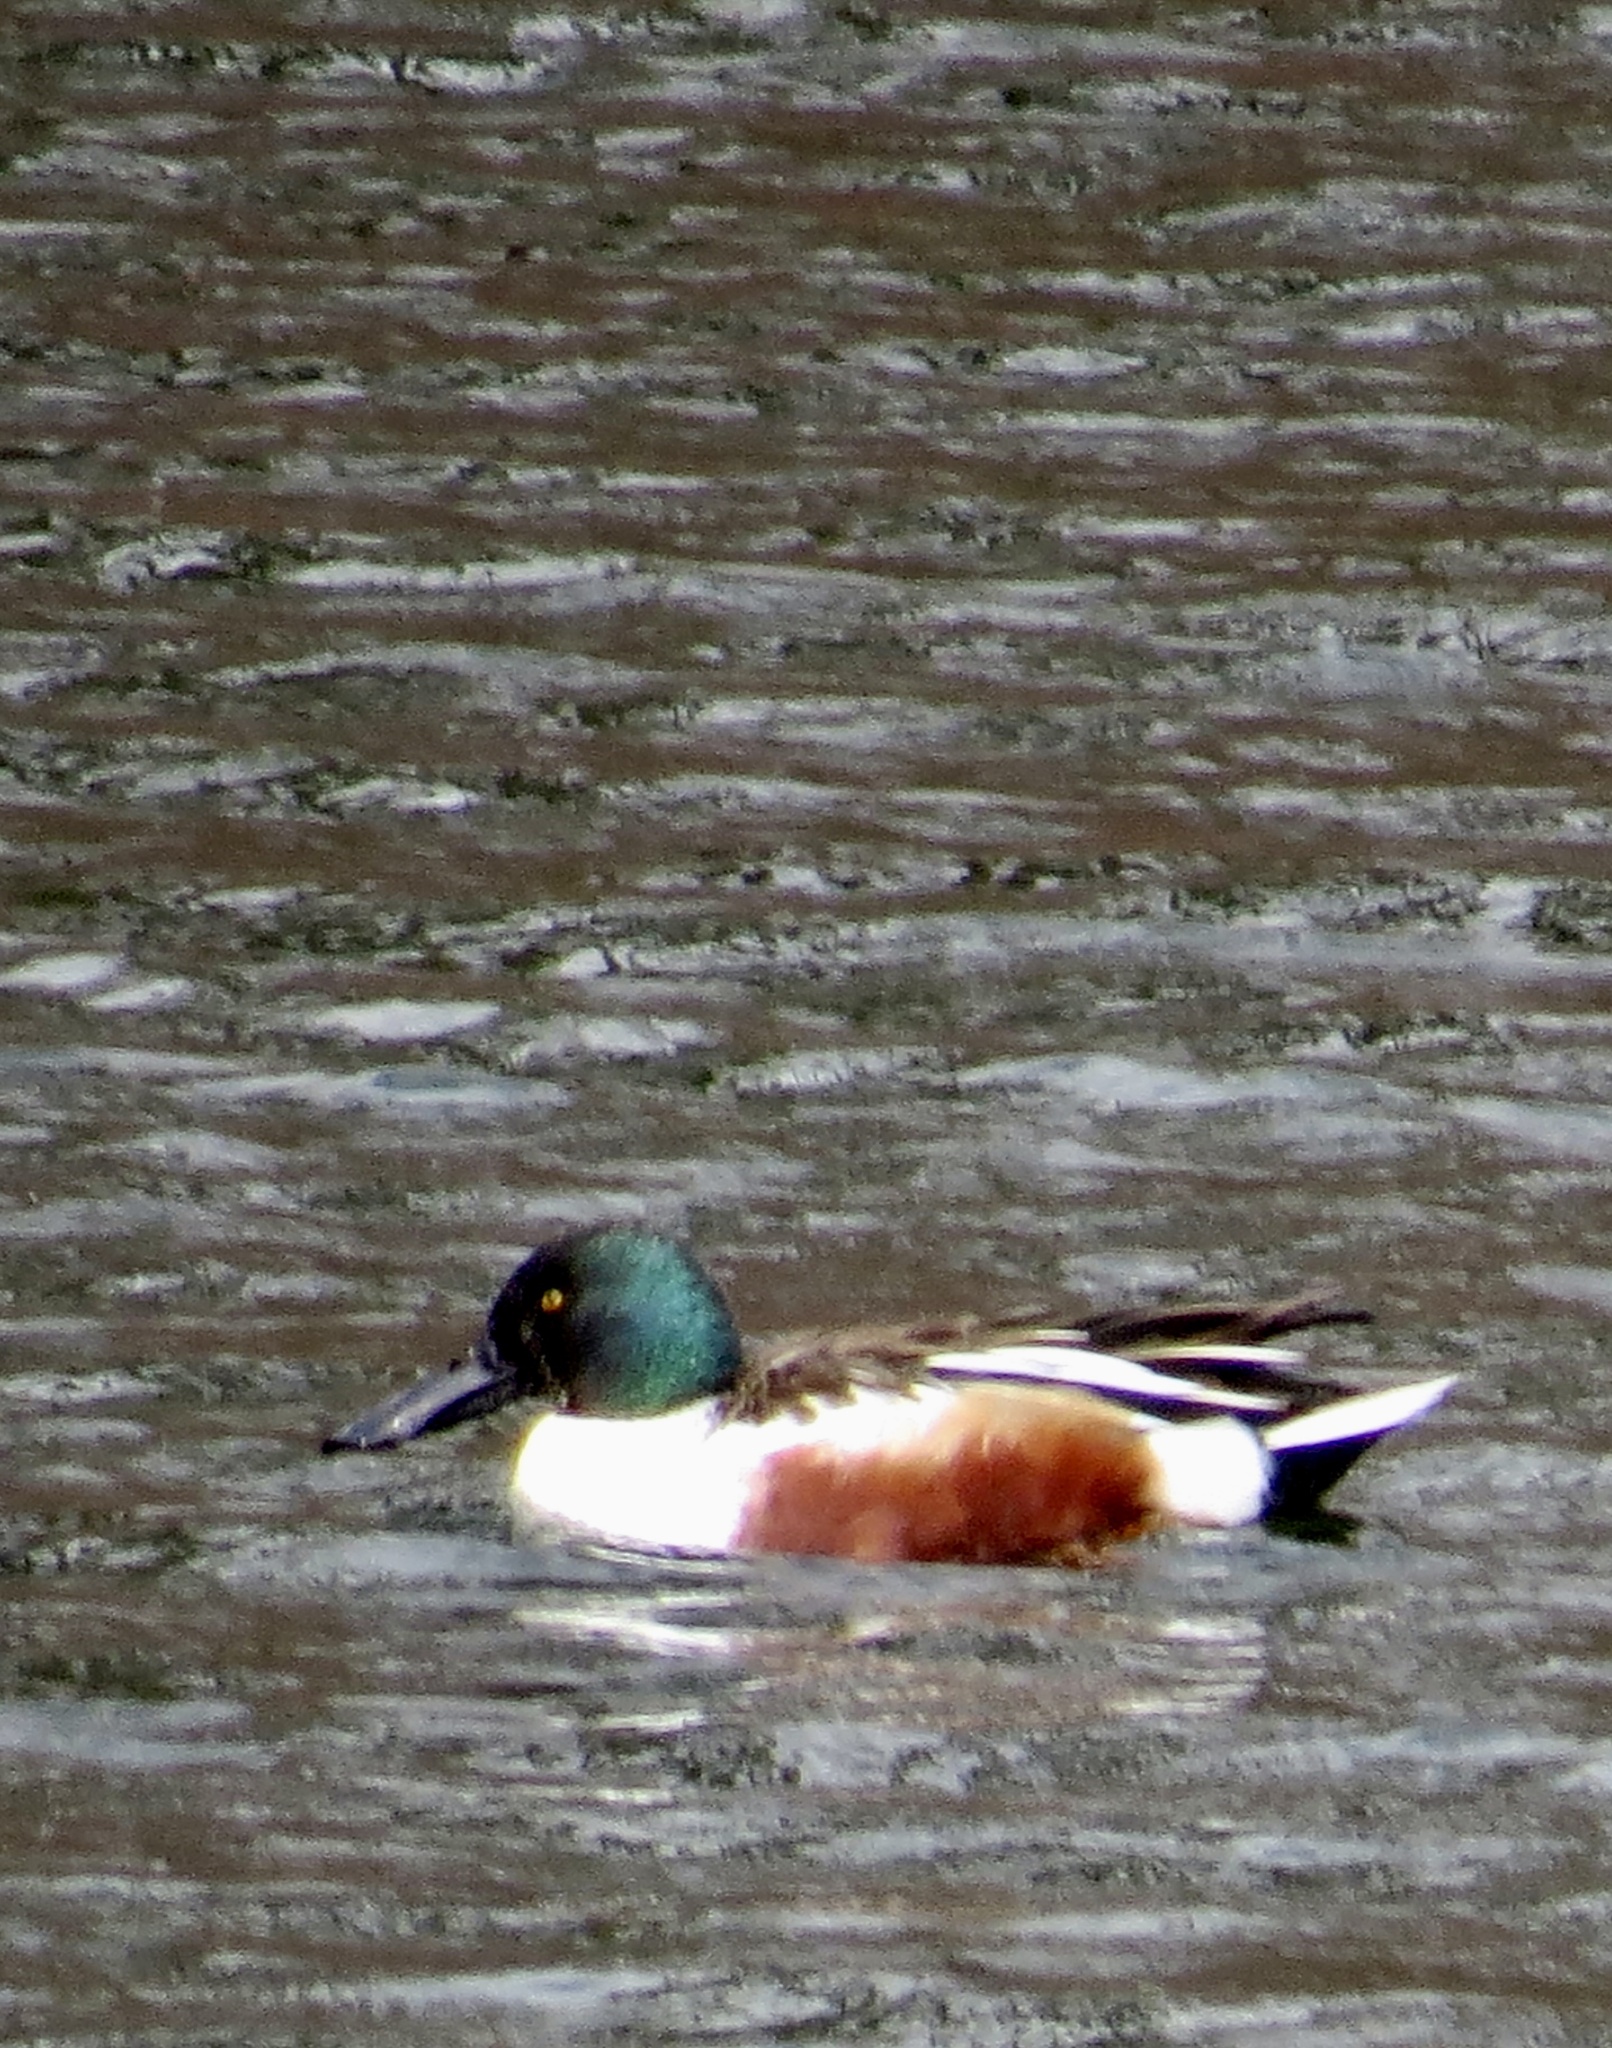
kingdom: Animalia
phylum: Chordata
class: Aves
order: Anseriformes
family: Anatidae
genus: Spatula
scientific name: Spatula clypeata
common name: Northern shoveler
